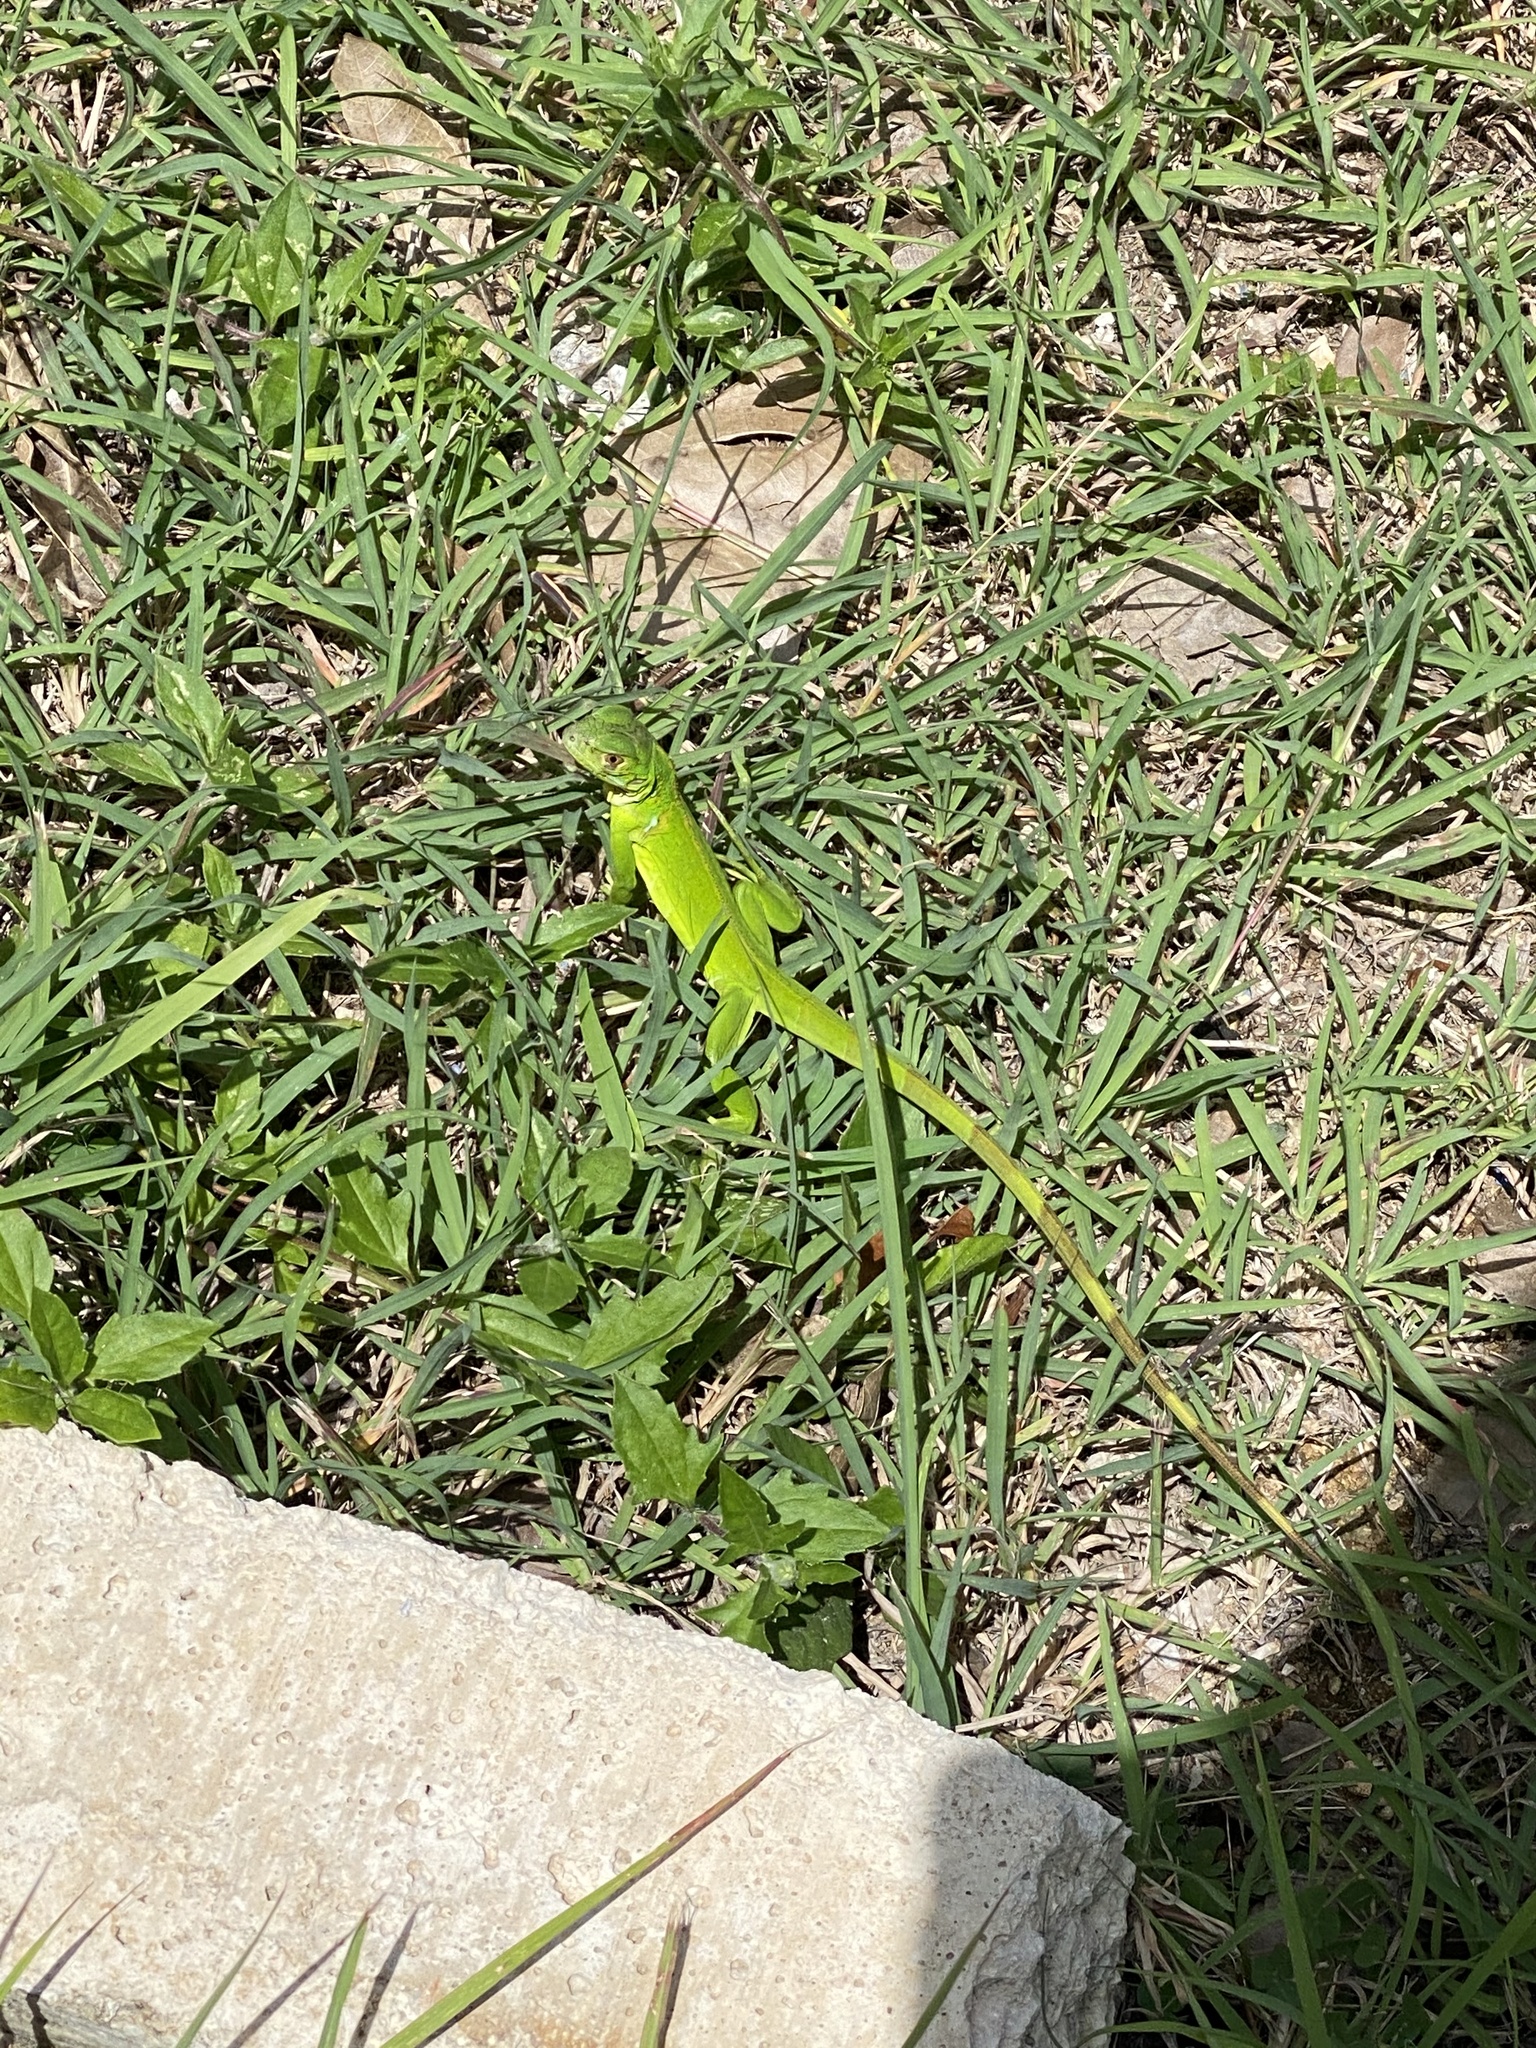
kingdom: Animalia
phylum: Chordata
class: Squamata
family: Iguanidae
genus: Iguana
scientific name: Iguana iguana
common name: Green iguana
